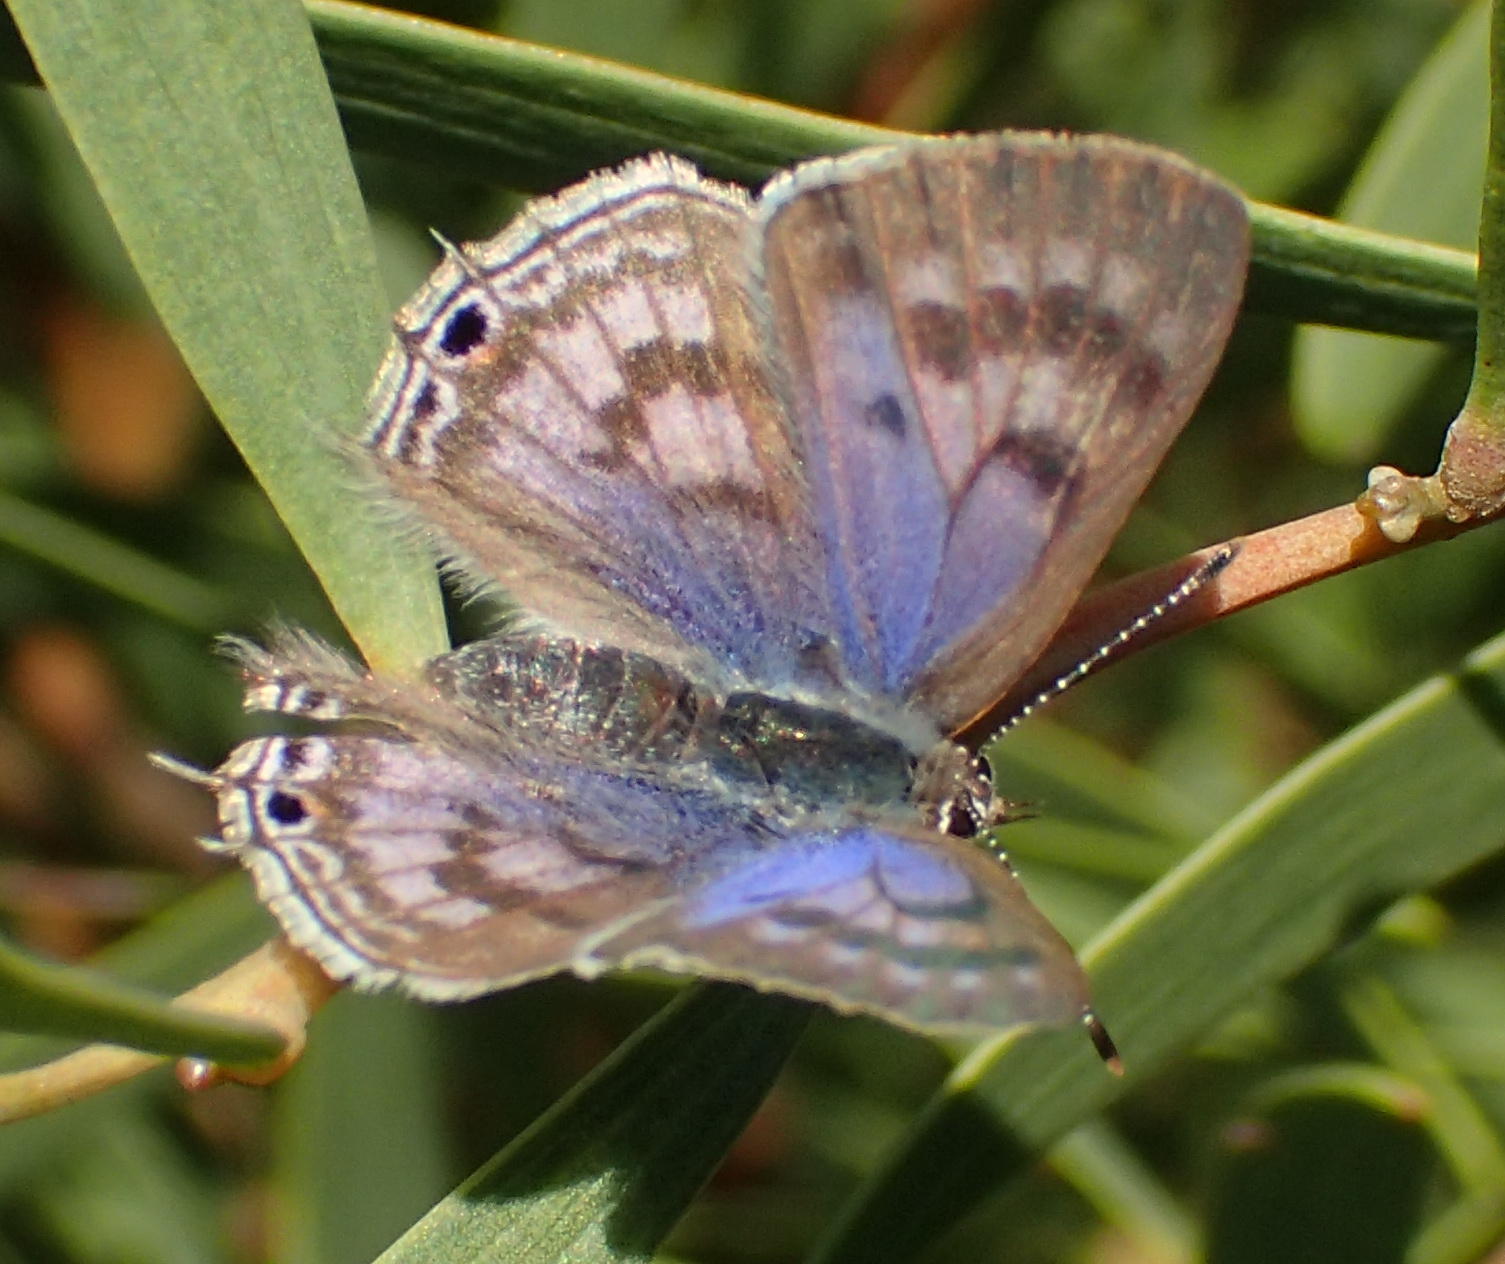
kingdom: Animalia
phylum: Arthropoda
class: Insecta
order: Lepidoptera
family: Lycaenidae
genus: Anthene
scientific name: Anthene definita
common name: Common ciliate blue
